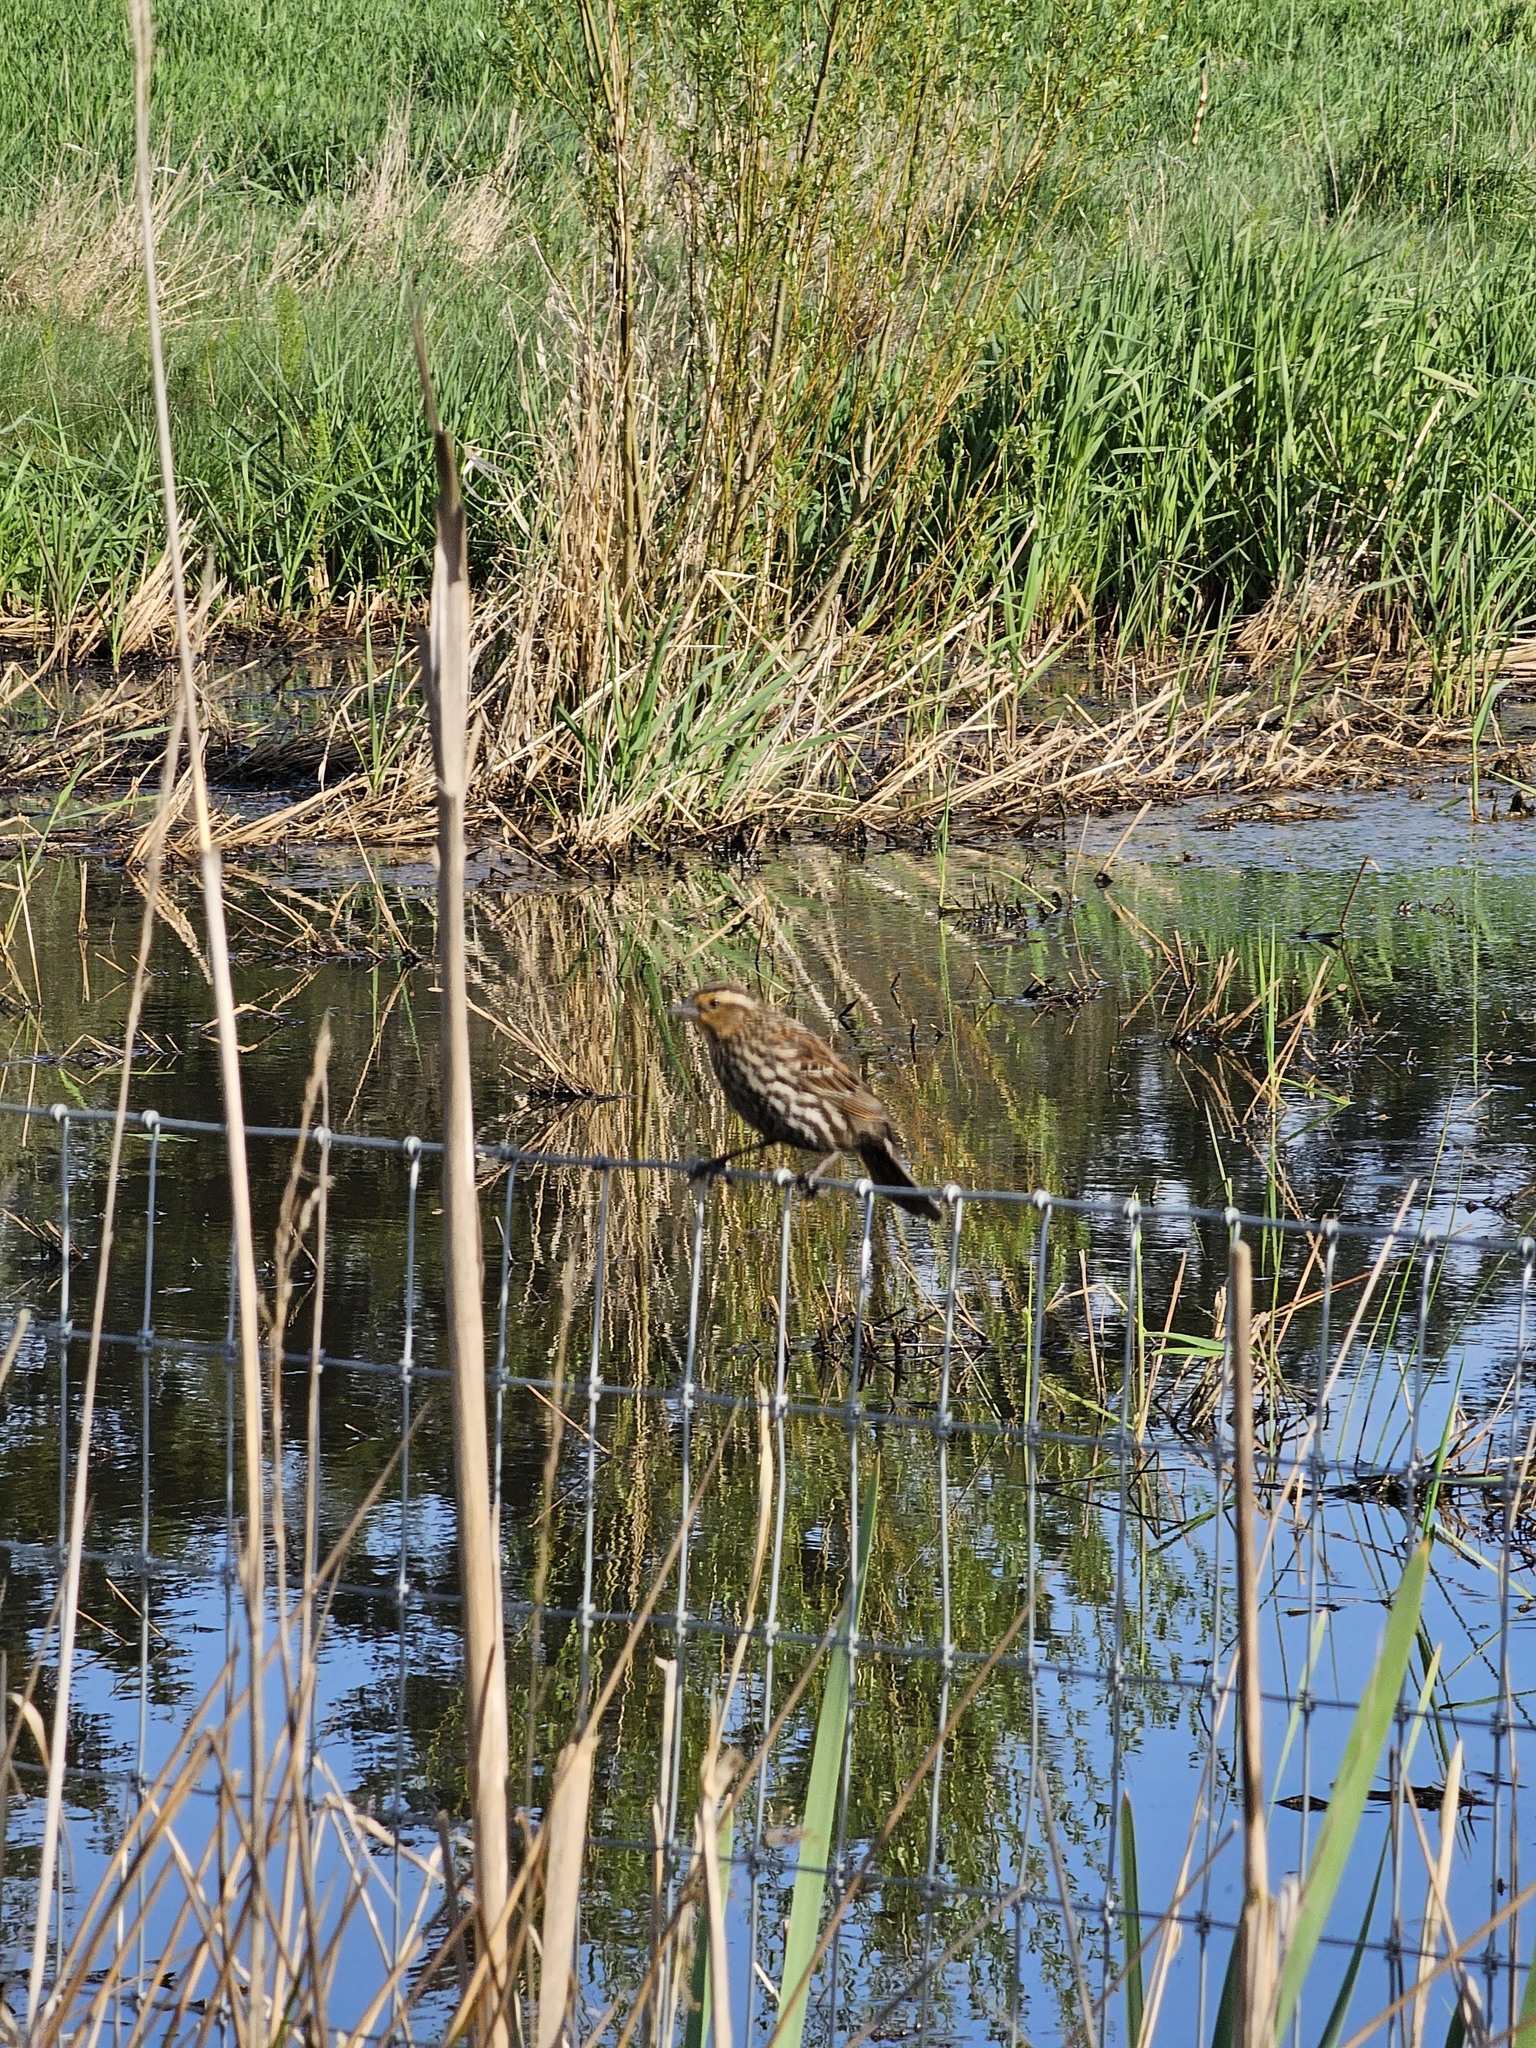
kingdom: Animalia
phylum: Chordata
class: Aves
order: Passeriformes
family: Icteridae
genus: Agelaius
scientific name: Agelaius phoeniceus
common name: Red-winged blackbird
